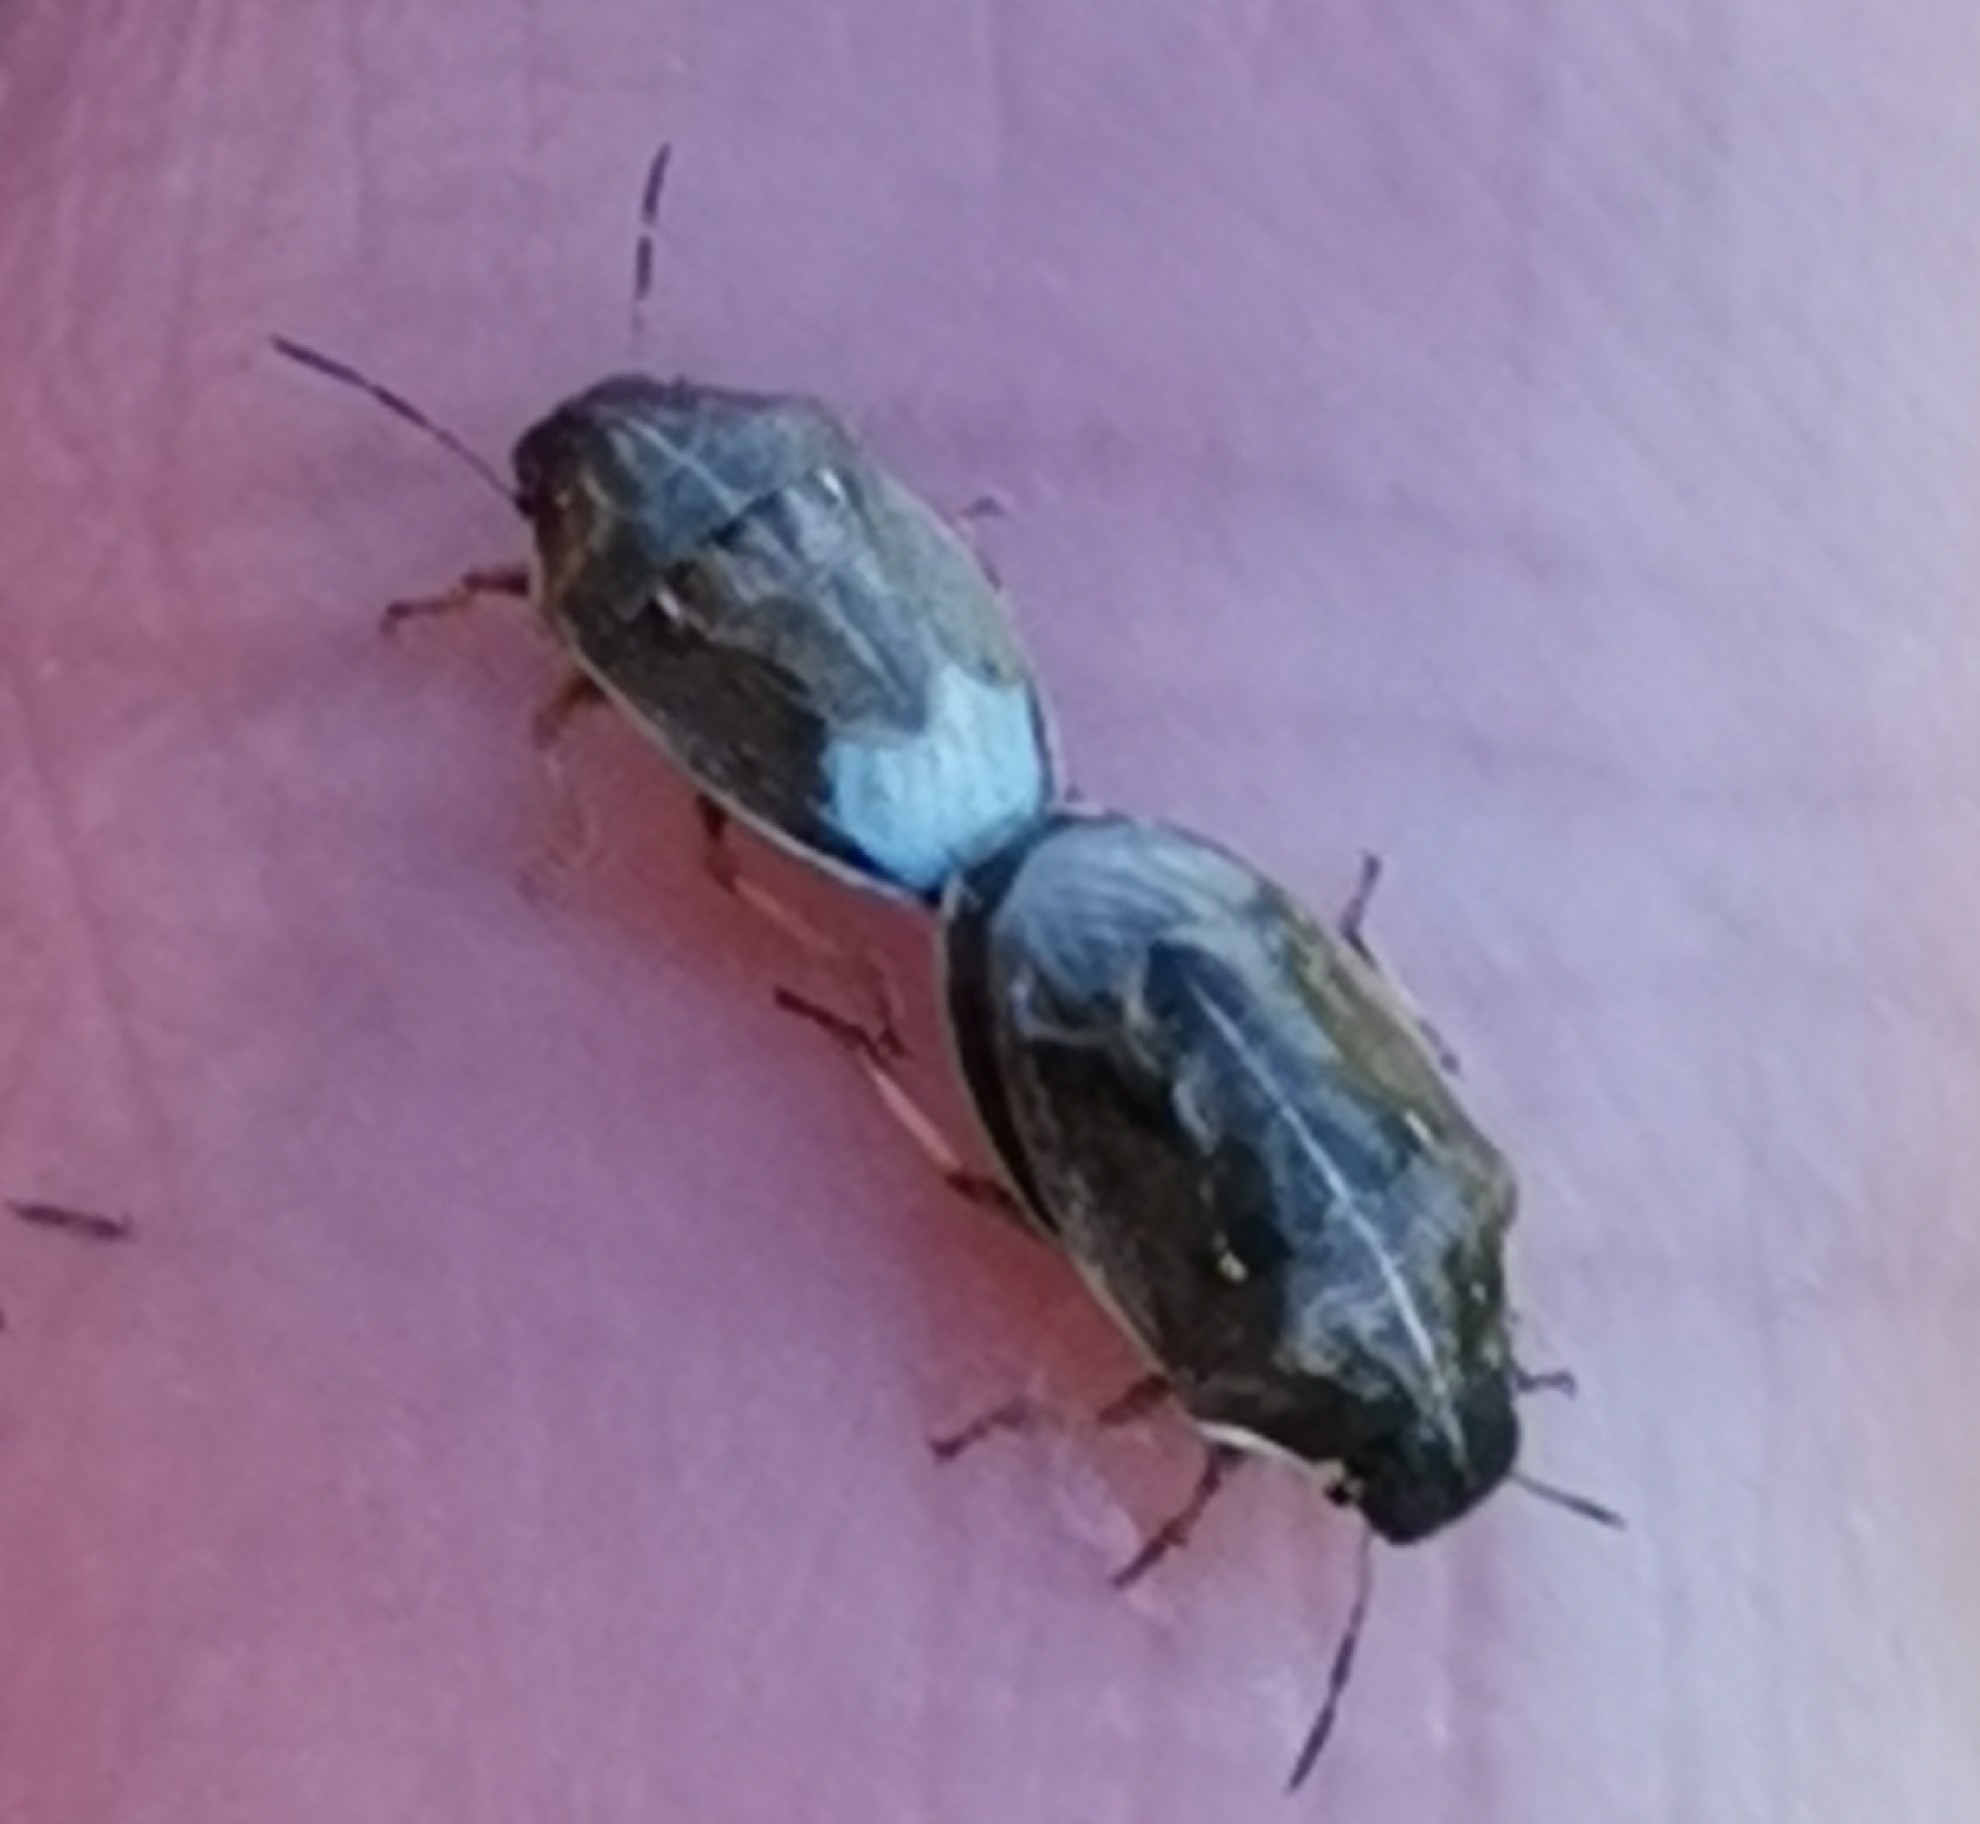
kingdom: Animalia
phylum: Arthropoda
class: Insecta
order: Hemiptera
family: Pentatomidae
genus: Neottiglossa
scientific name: Neottiglossa pusilla
